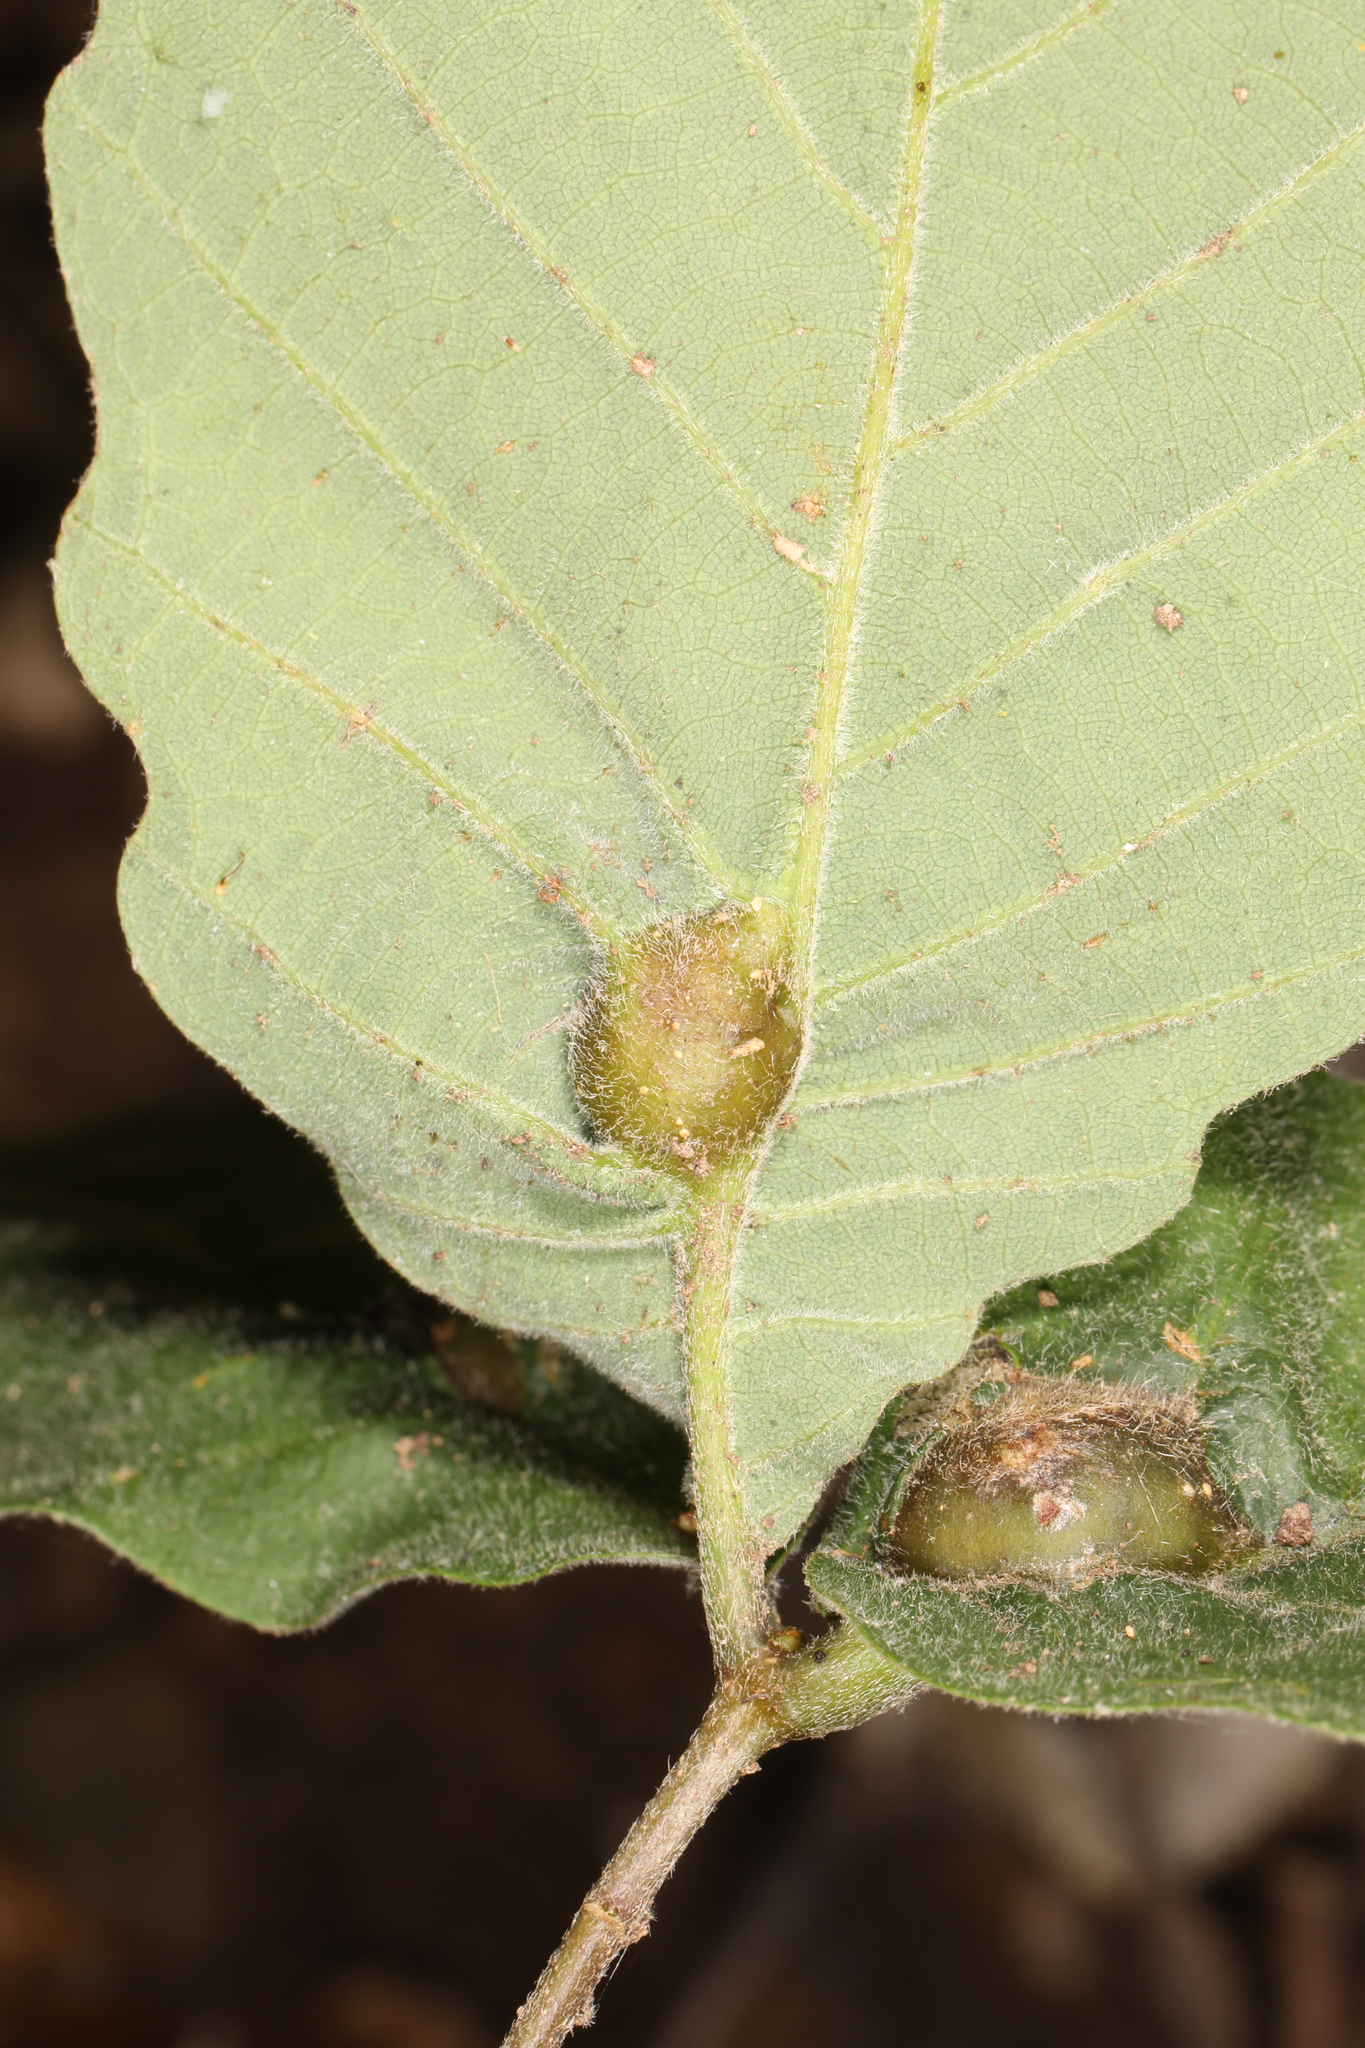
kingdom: Animalia
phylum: Arthropoda
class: Insecta
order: Hymenoptera
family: Cynipidae
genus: Andricus
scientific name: Andricus
